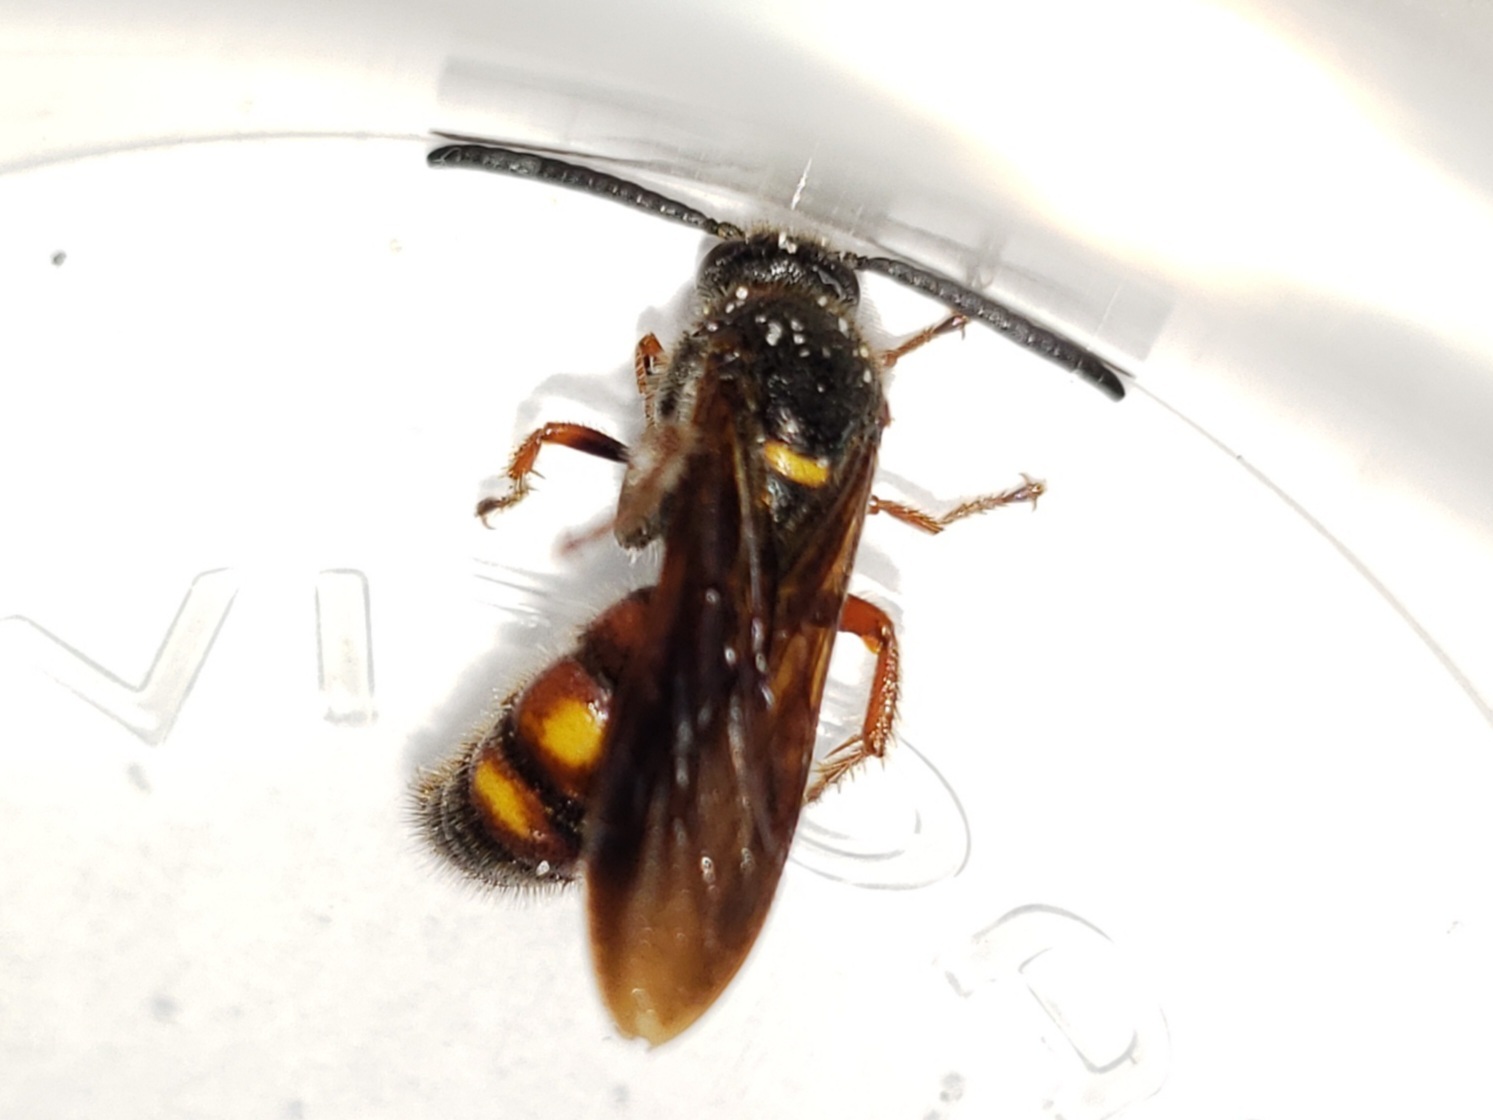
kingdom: Animalia
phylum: Arthropoda
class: Insecta
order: Hymenoptera
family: Scoliidae
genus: Scolia
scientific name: Scolia nobilitata
